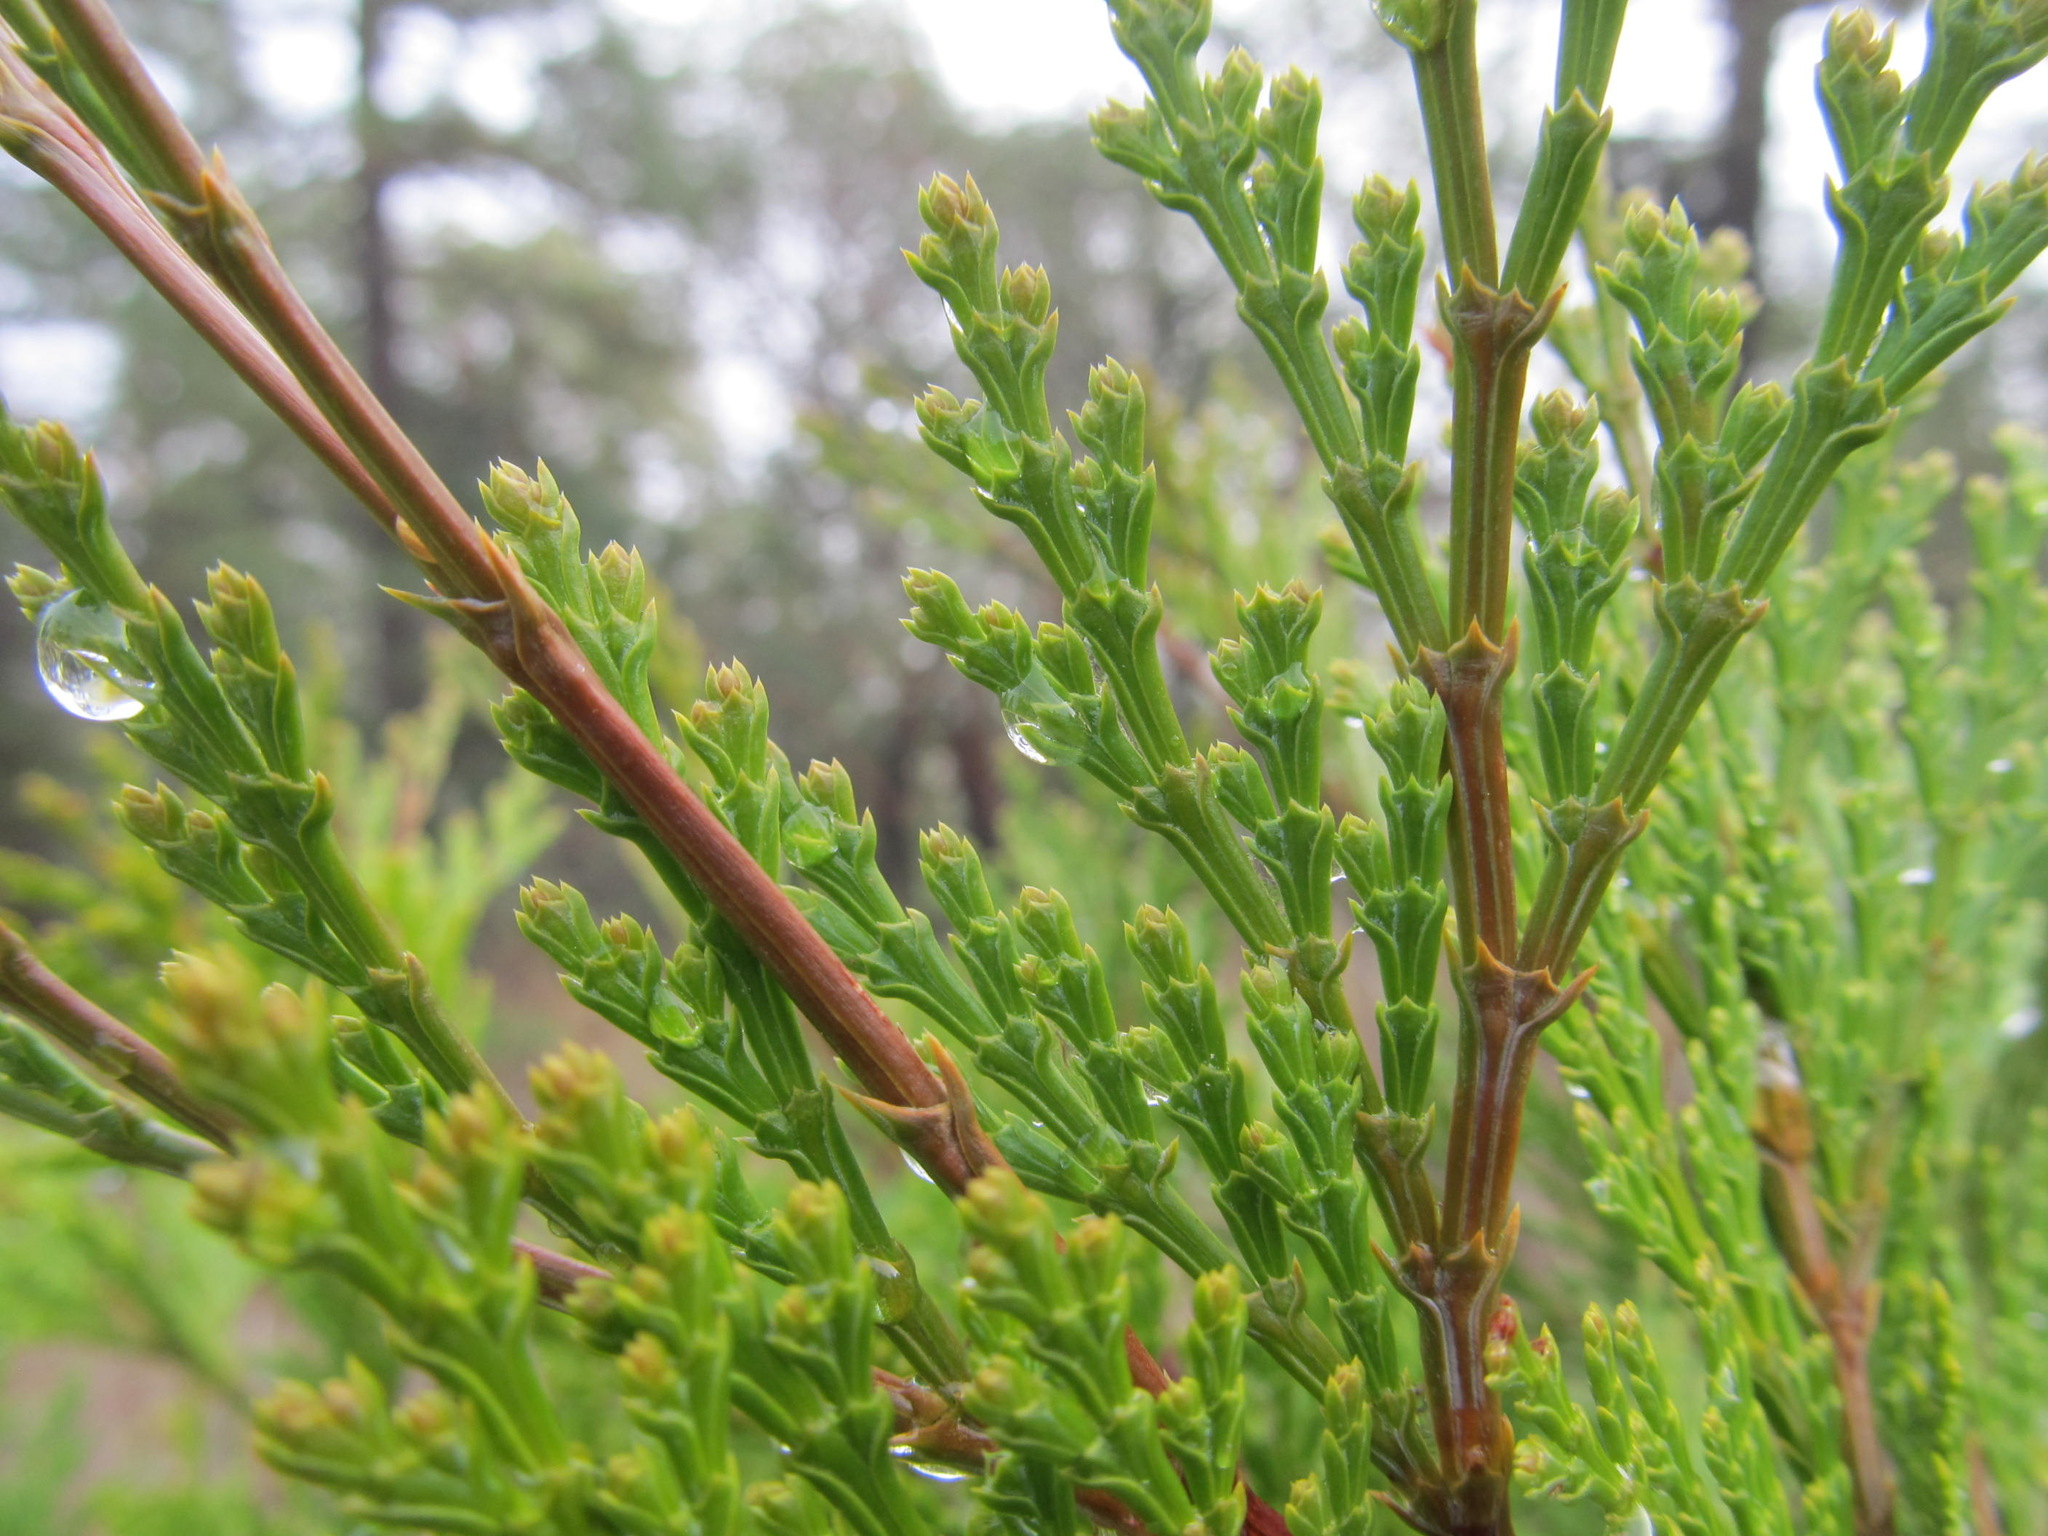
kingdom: Plantae
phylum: Tracheophyta
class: Pinopsida
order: Pinales
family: Cupressaceae
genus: Calocedrus
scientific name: Calocedrus decurrens
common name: Californian incense-cedar
